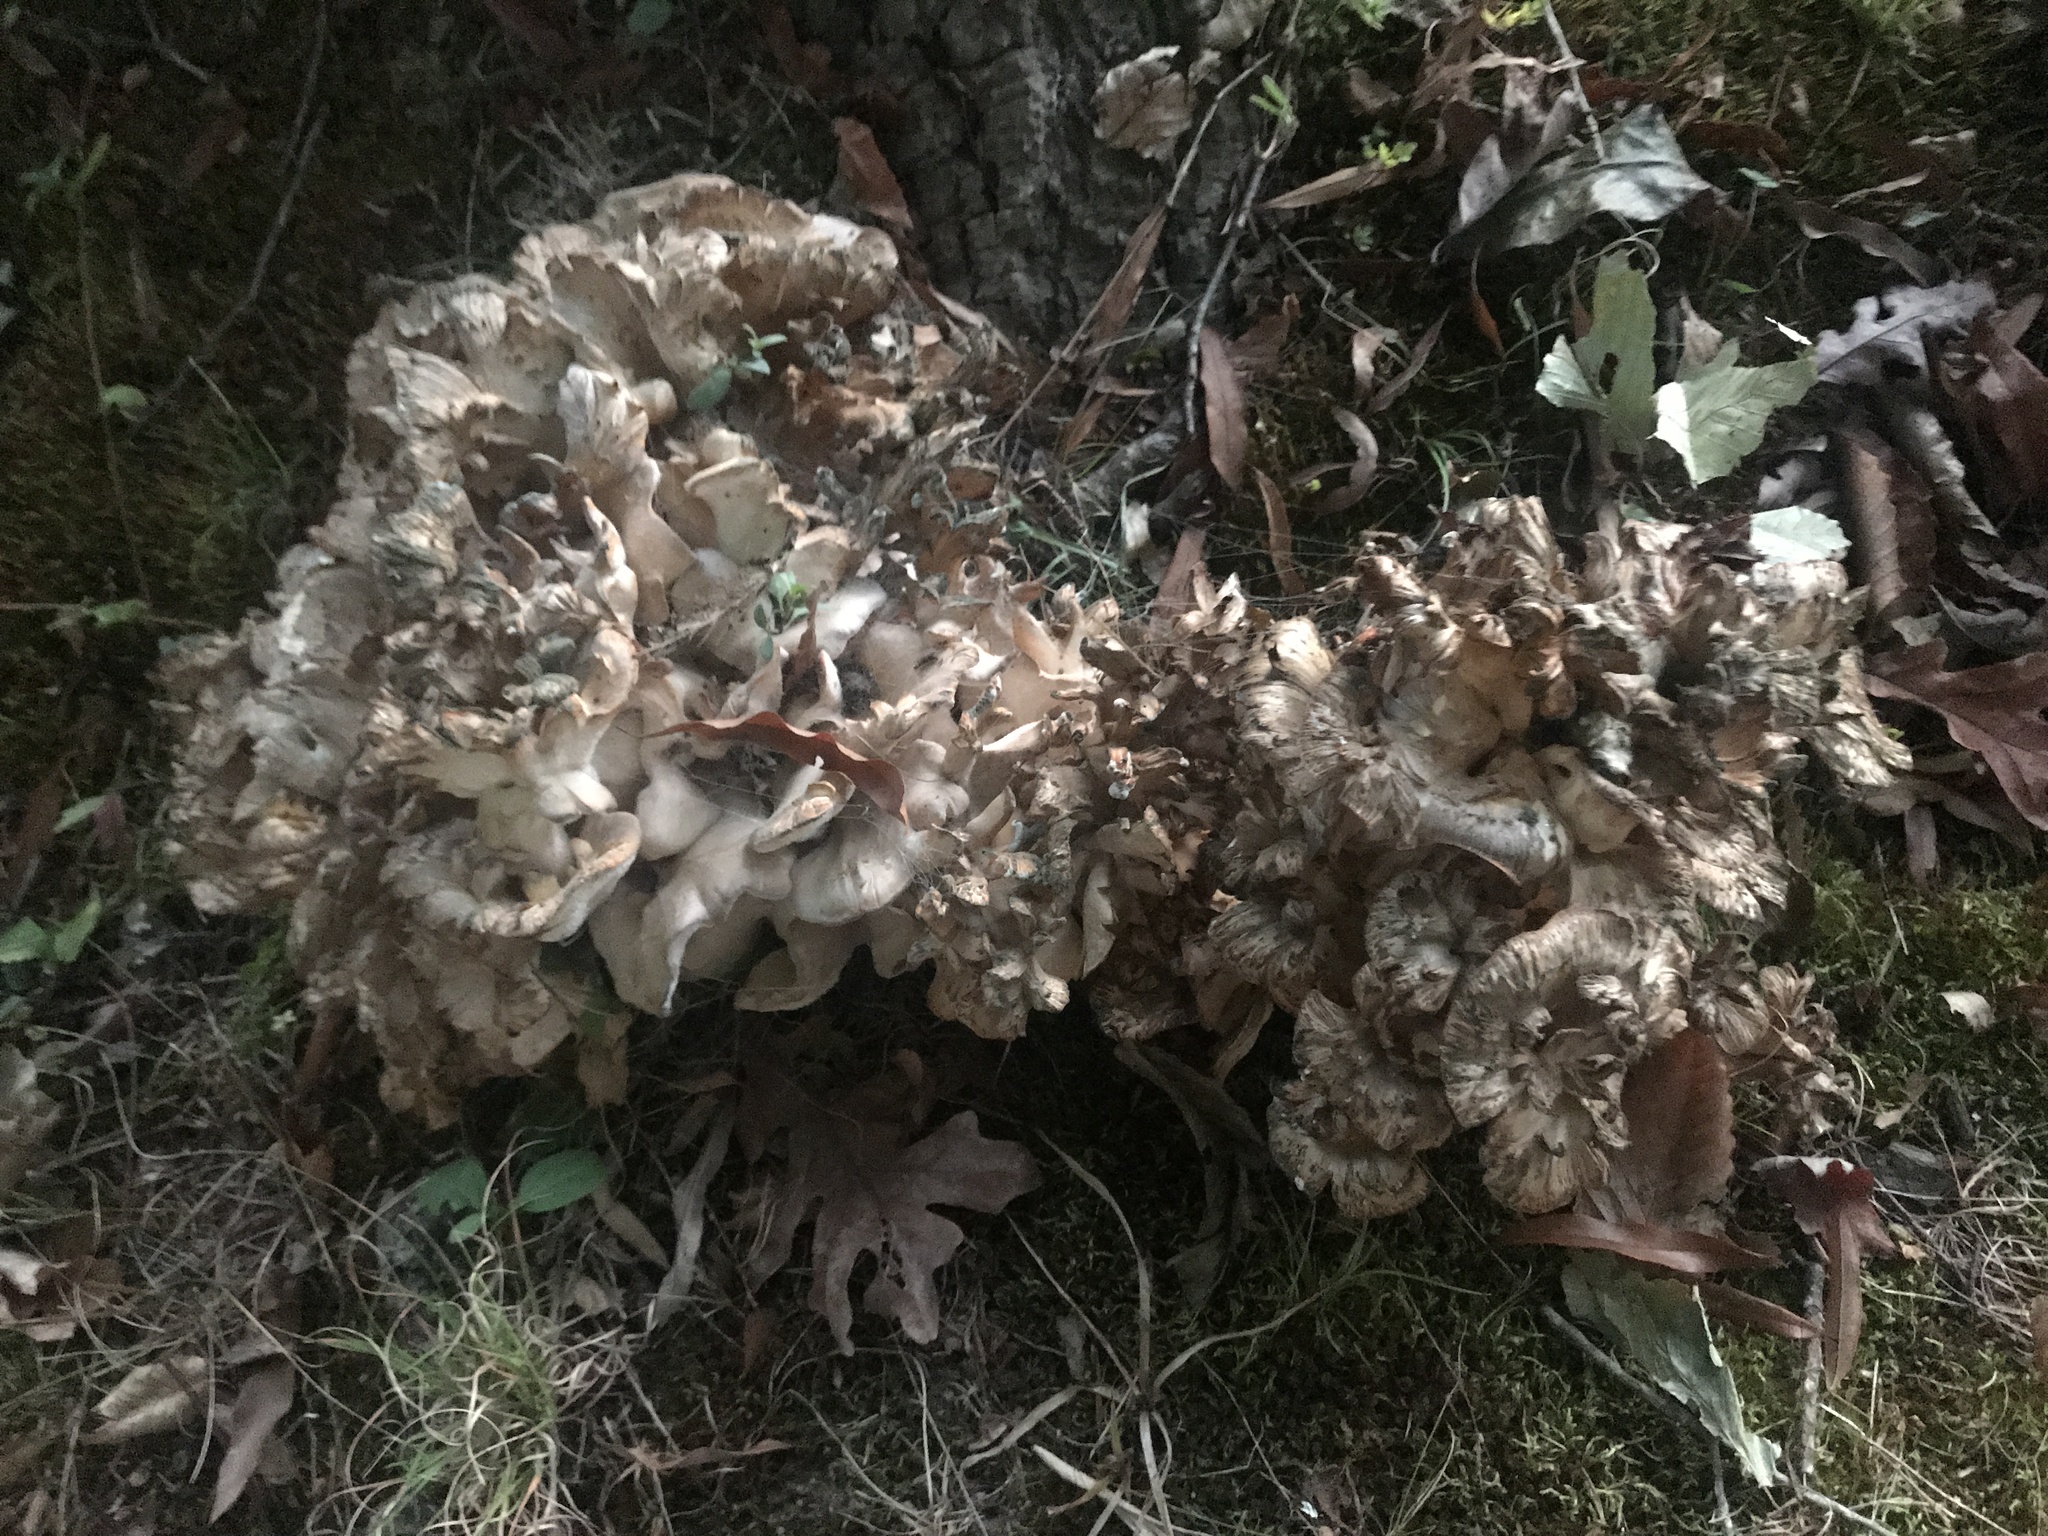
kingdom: Fungi
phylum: Basidiomycota
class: Agaricomycetes
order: Polyporales
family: Grifolaceae
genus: Grifola
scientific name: Grifola frondosa
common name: Hen of the woods
